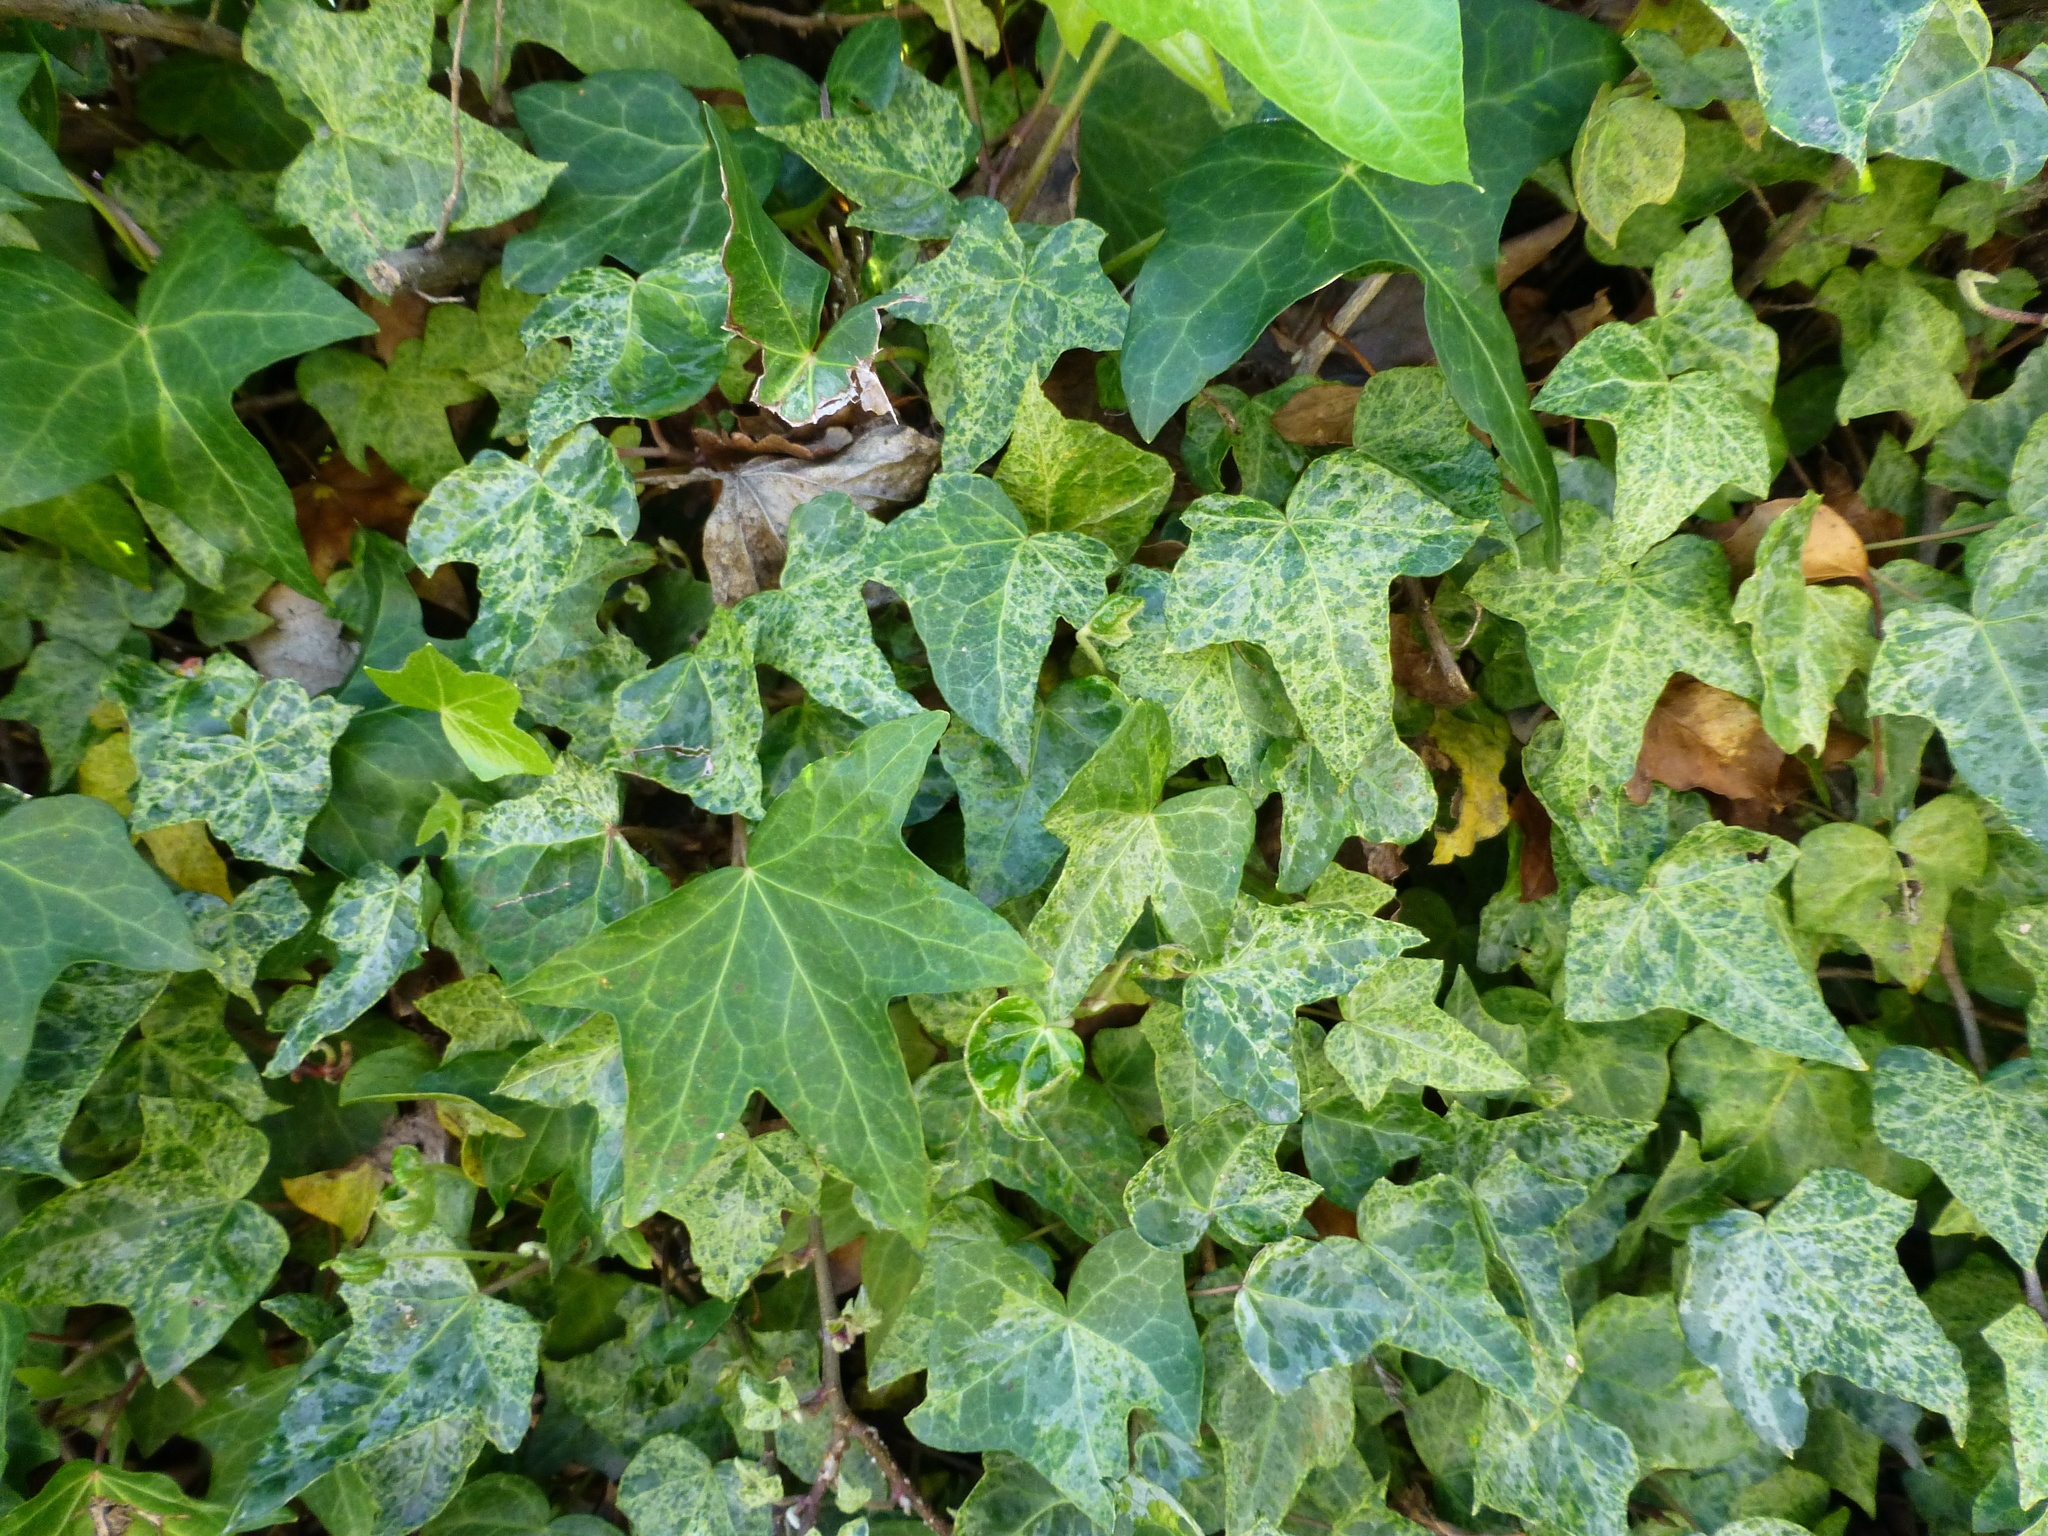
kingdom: Plantae
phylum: Tracheophyta
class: Magnoliopsida
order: Apiales
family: Araliaceae
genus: Hedera
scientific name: Hedera helix
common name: Ivy
